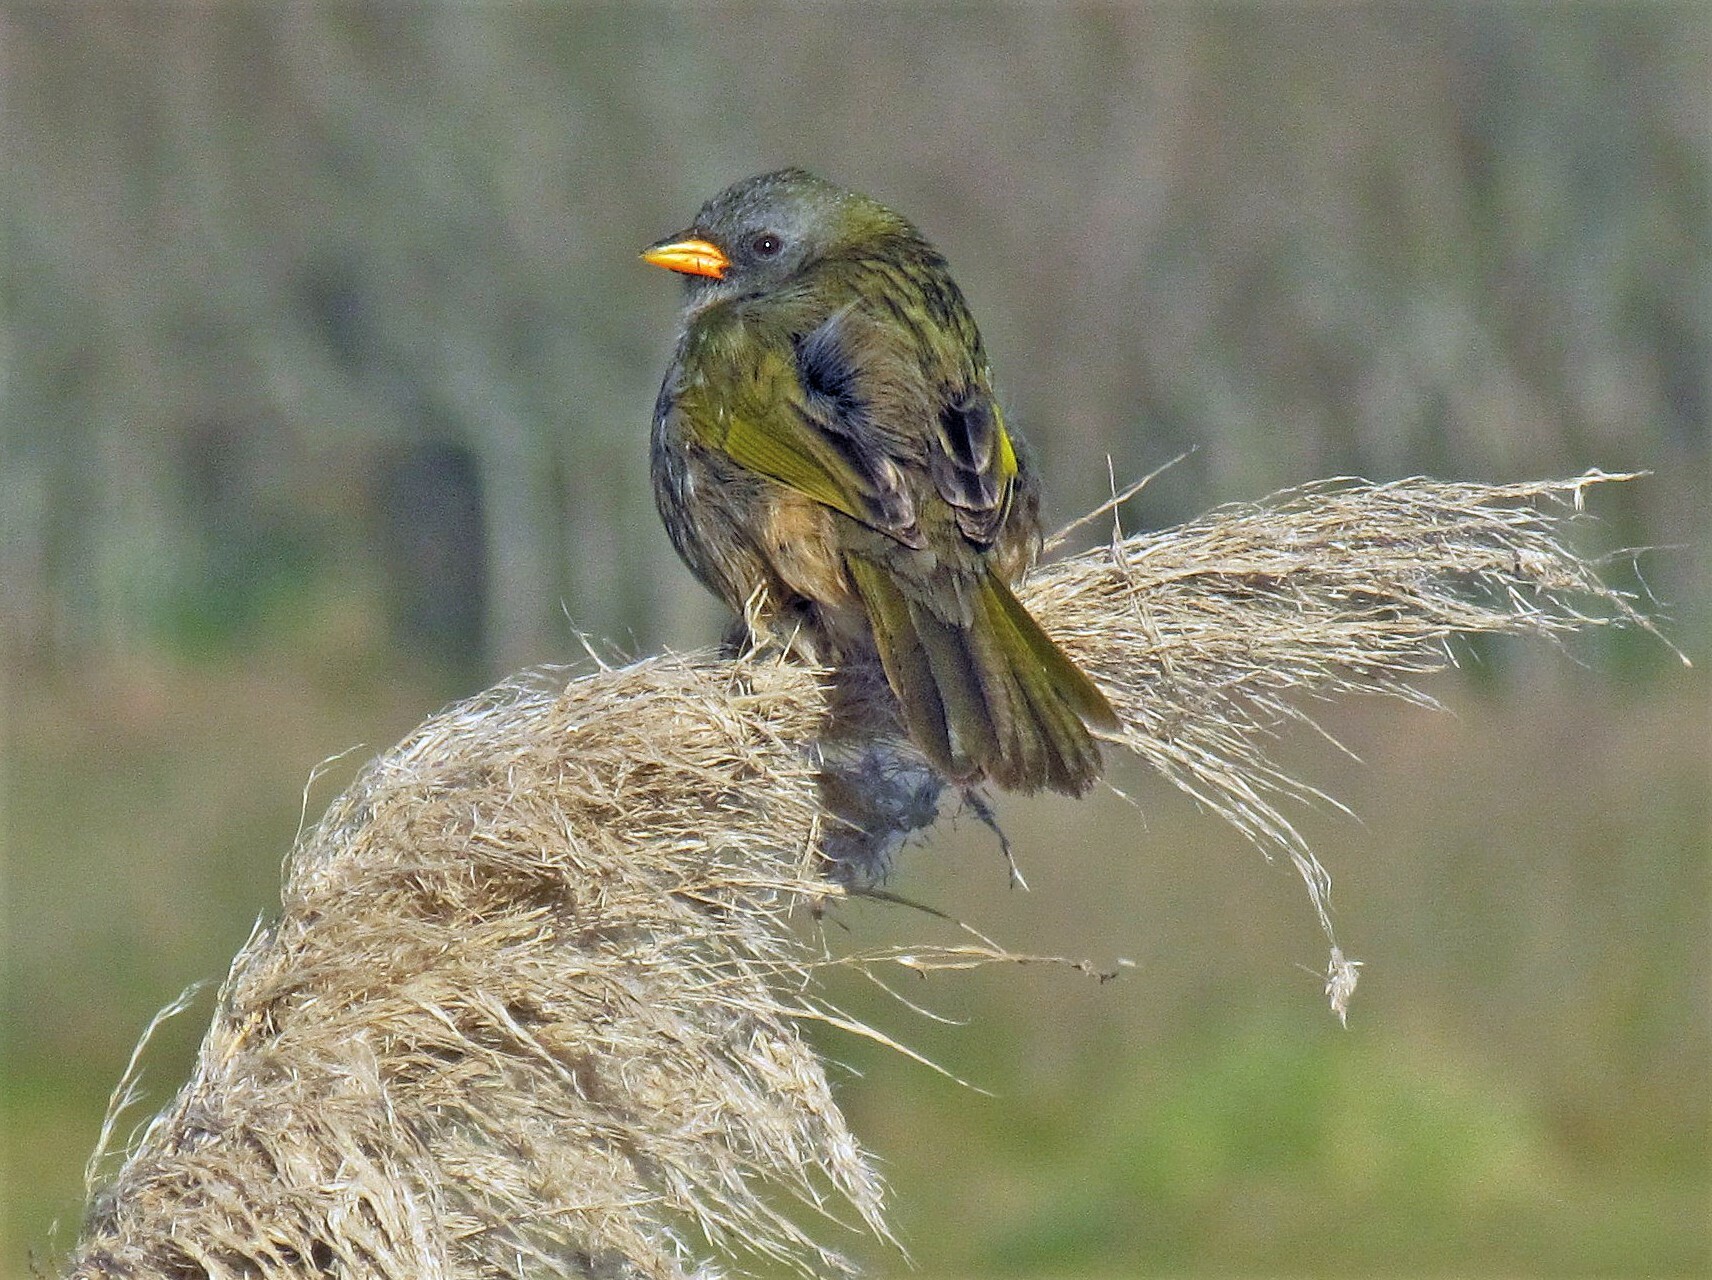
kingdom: Animalia
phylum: Chordata
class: Aves
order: Passeriformes
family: Thraupidae
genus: Embernagra
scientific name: Embernagra platensis
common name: Pampa finch
